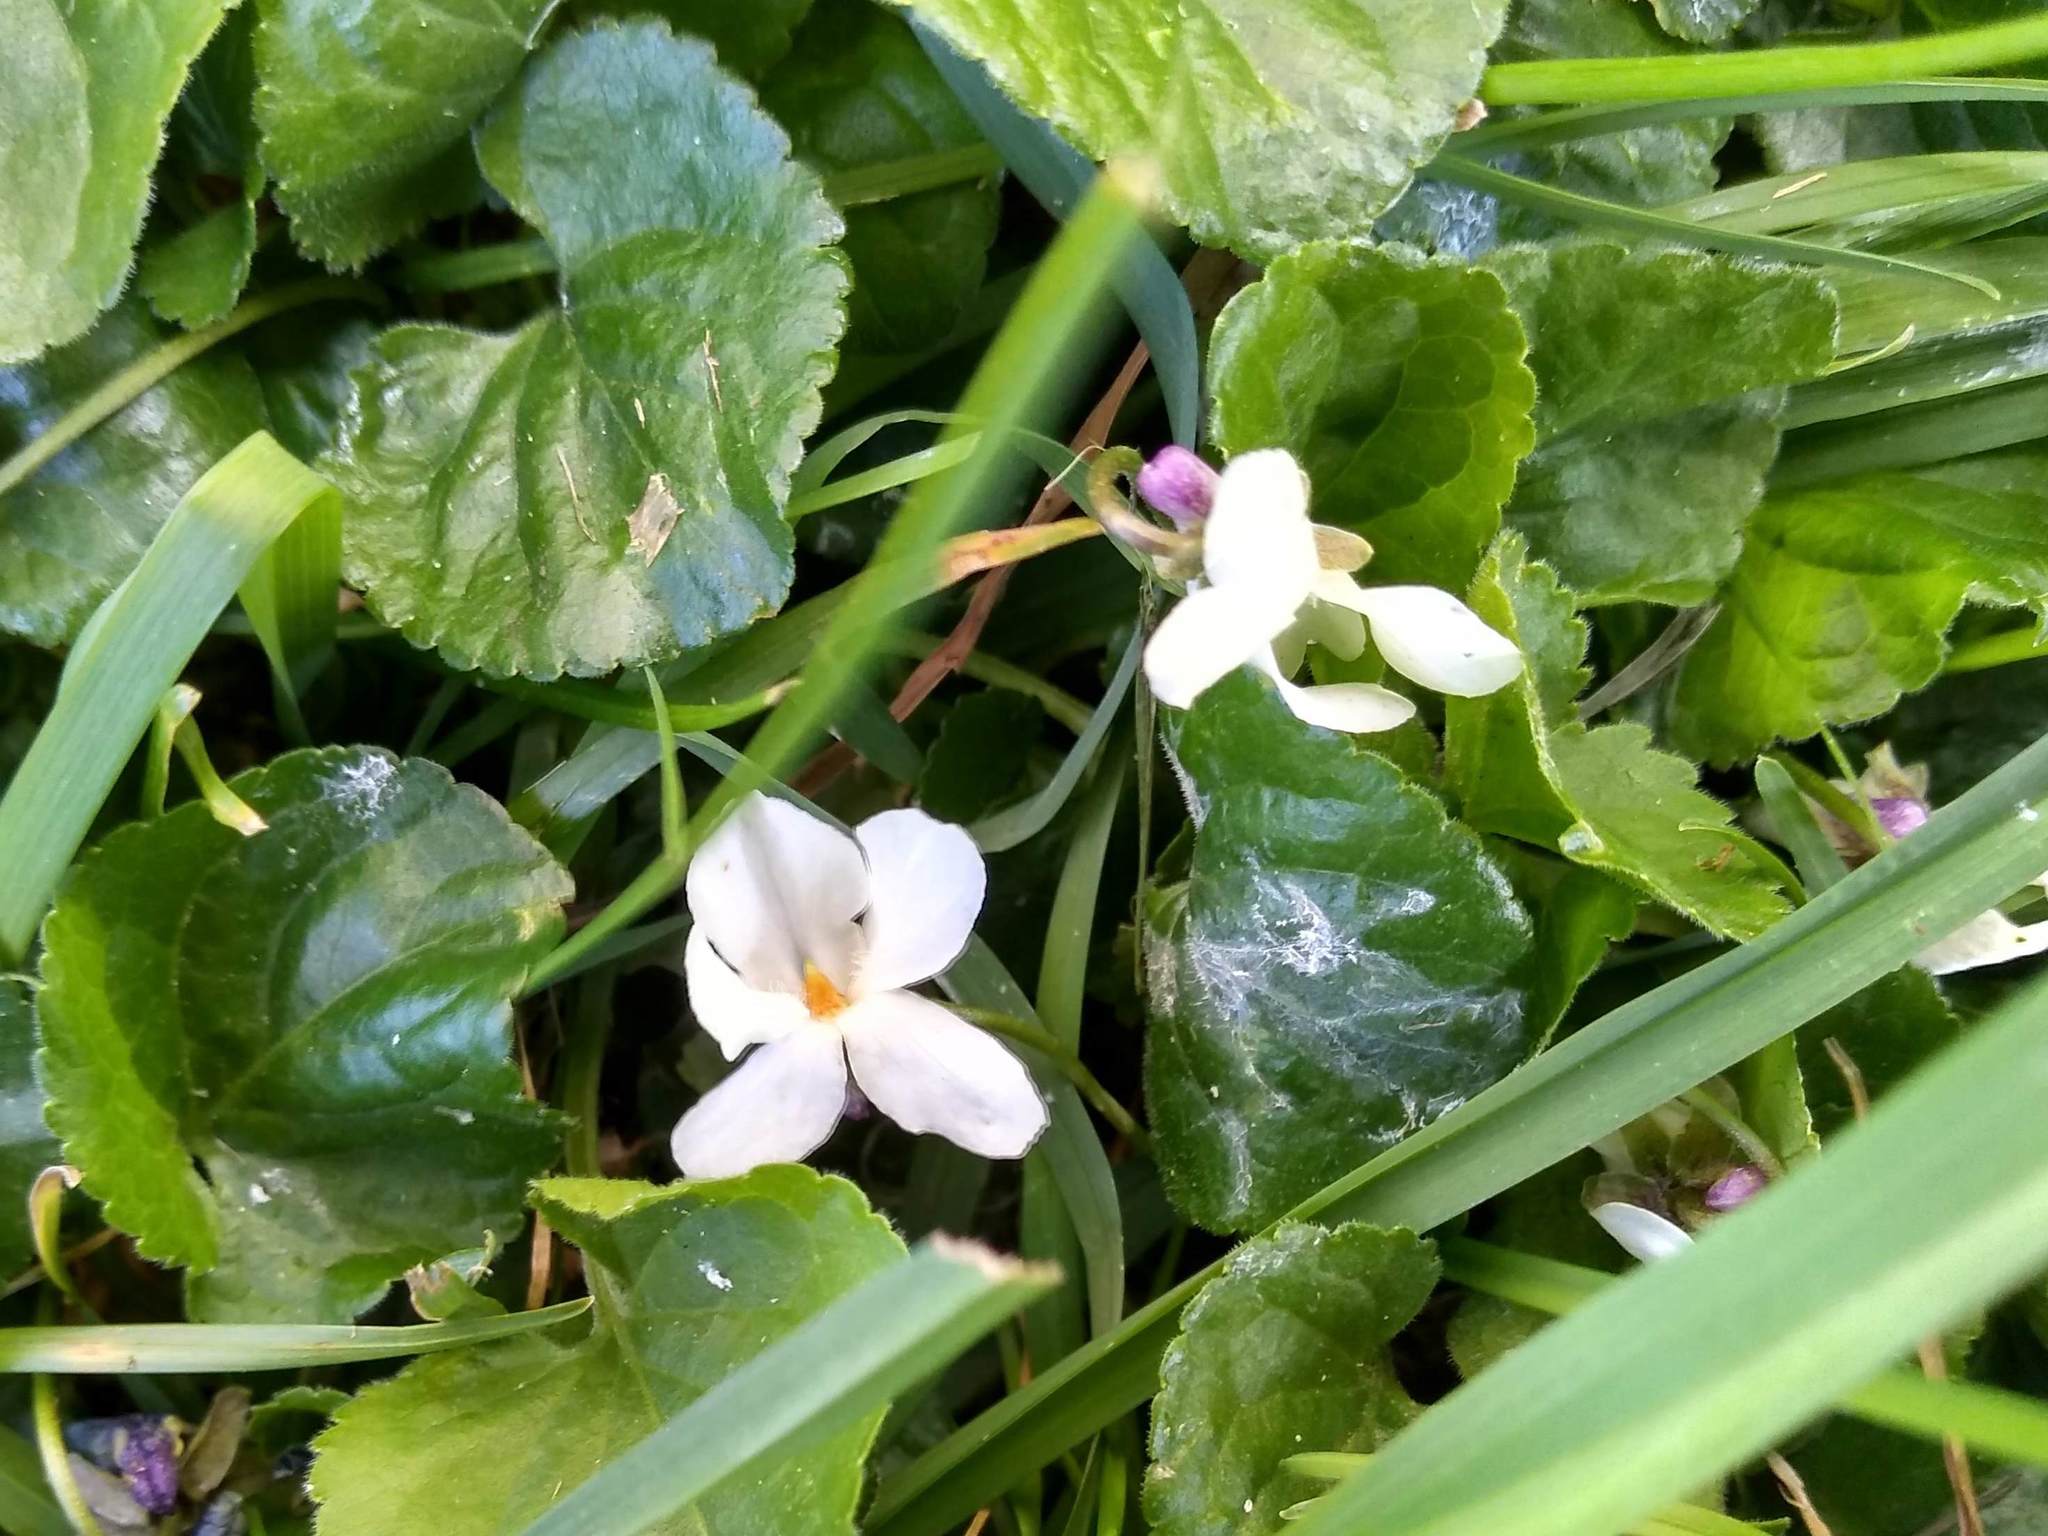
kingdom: Plantae
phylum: Tracheophyta
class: Magnoliopsida
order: Malpighiales
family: Violaceae
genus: Viola
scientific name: Viola odorata
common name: Sweet violet
